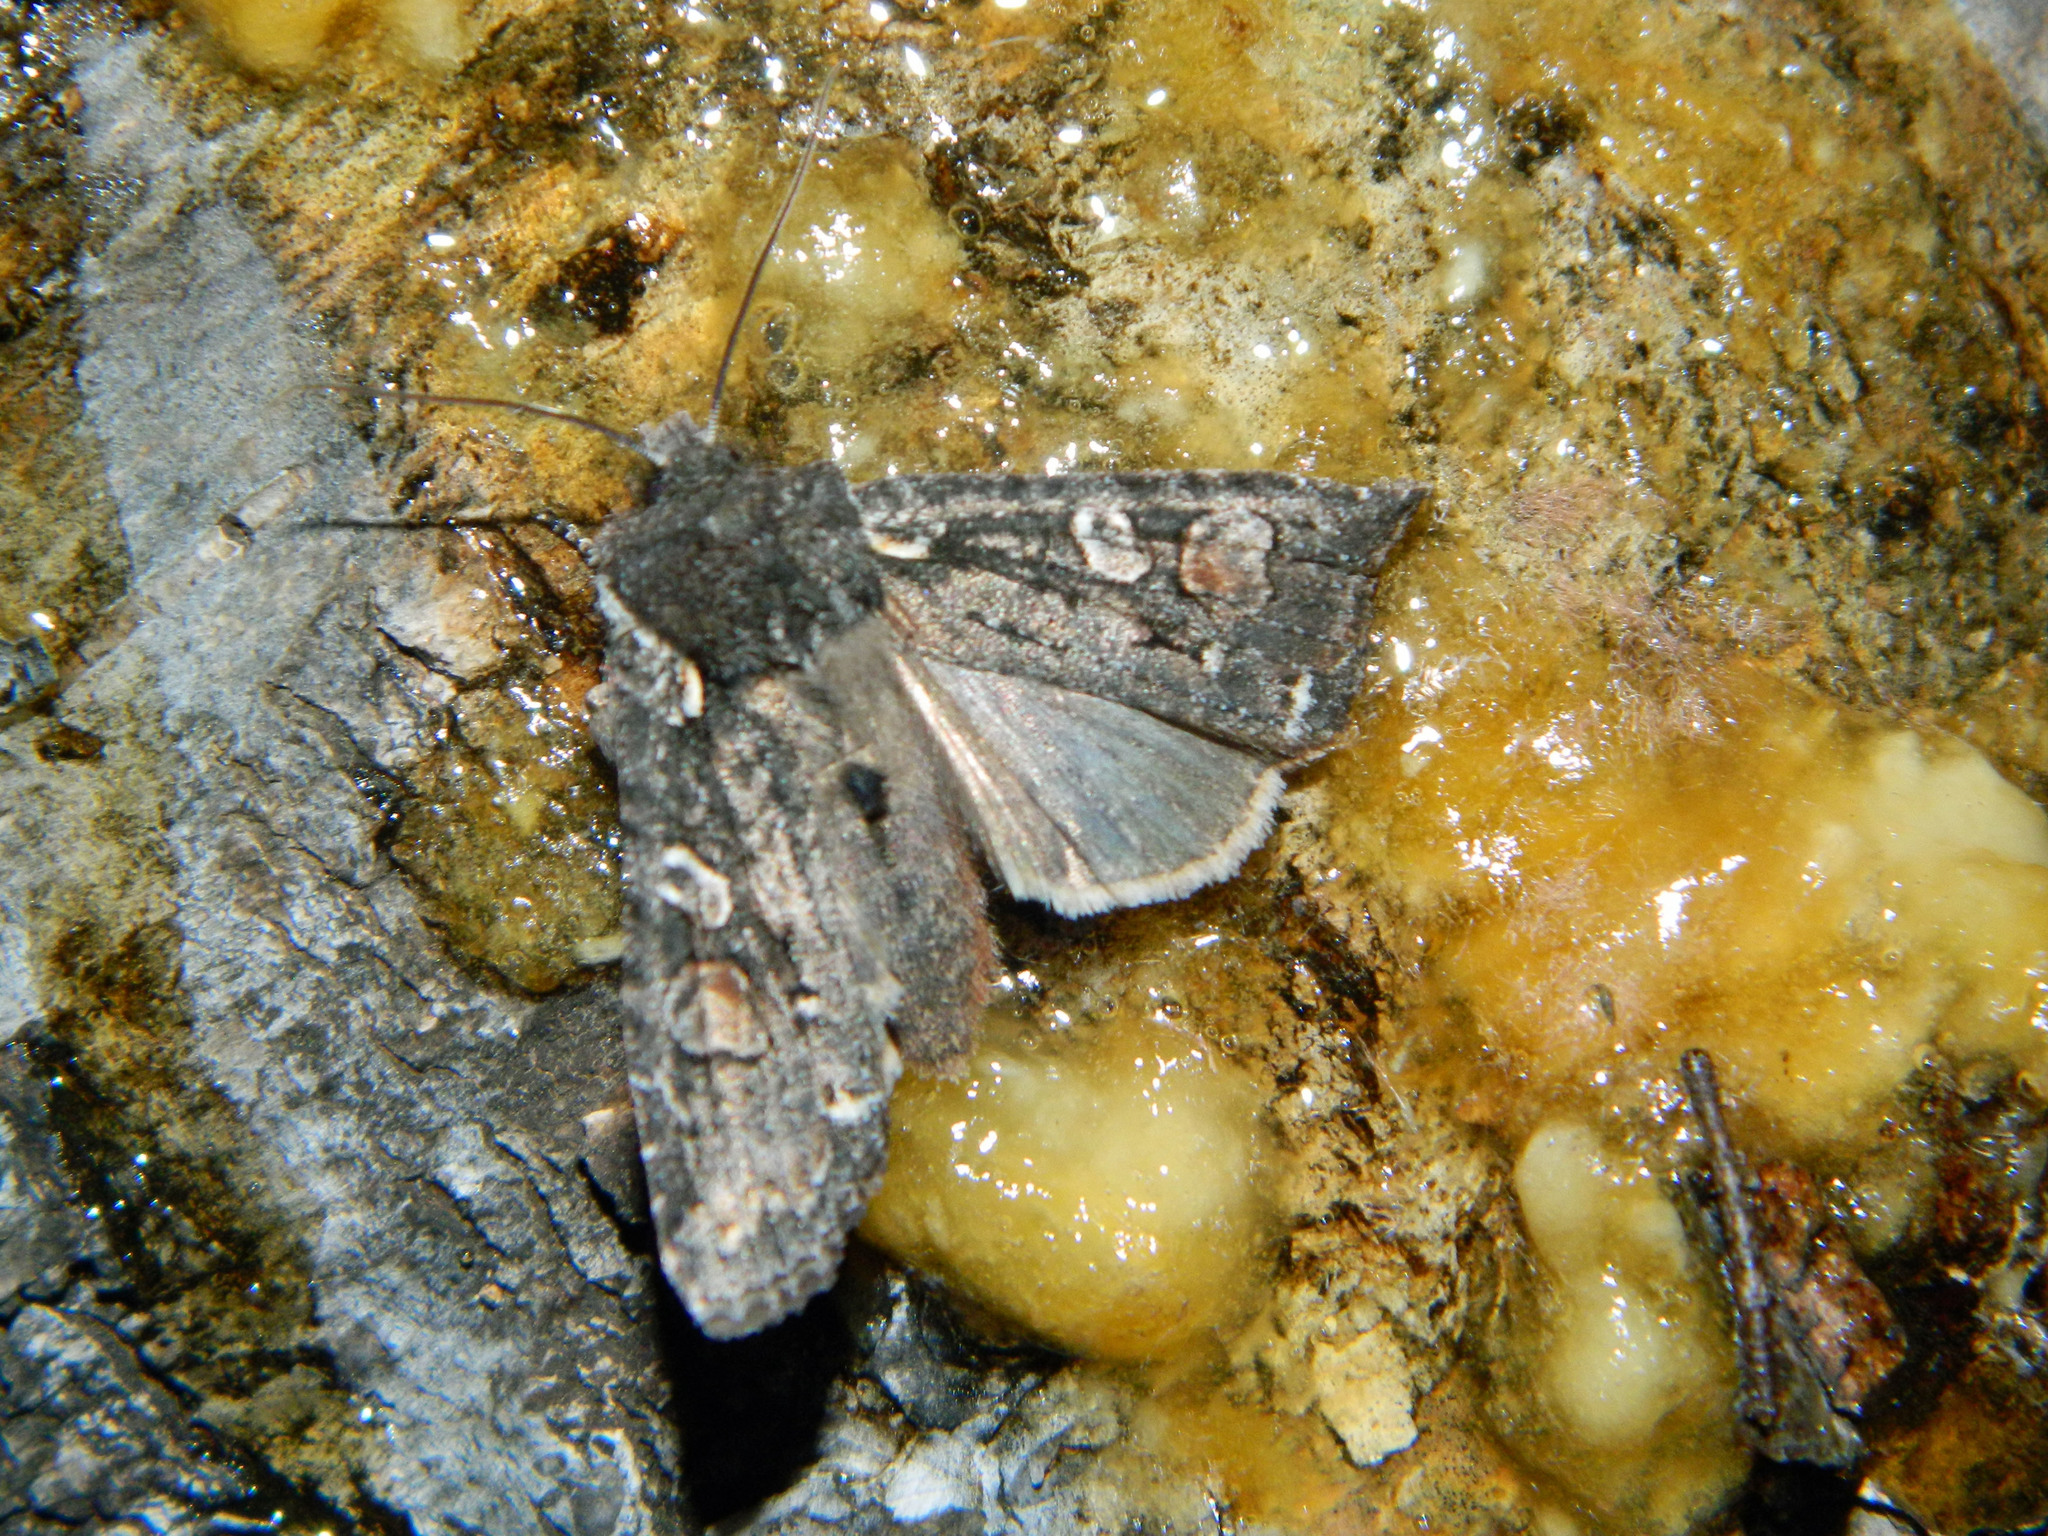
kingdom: Animalia
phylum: Arthropoda
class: Insecta
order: Lepidoptera
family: Noctuidae
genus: Lithophane
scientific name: Lithophane pexata
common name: Plush-naped pinion moth
